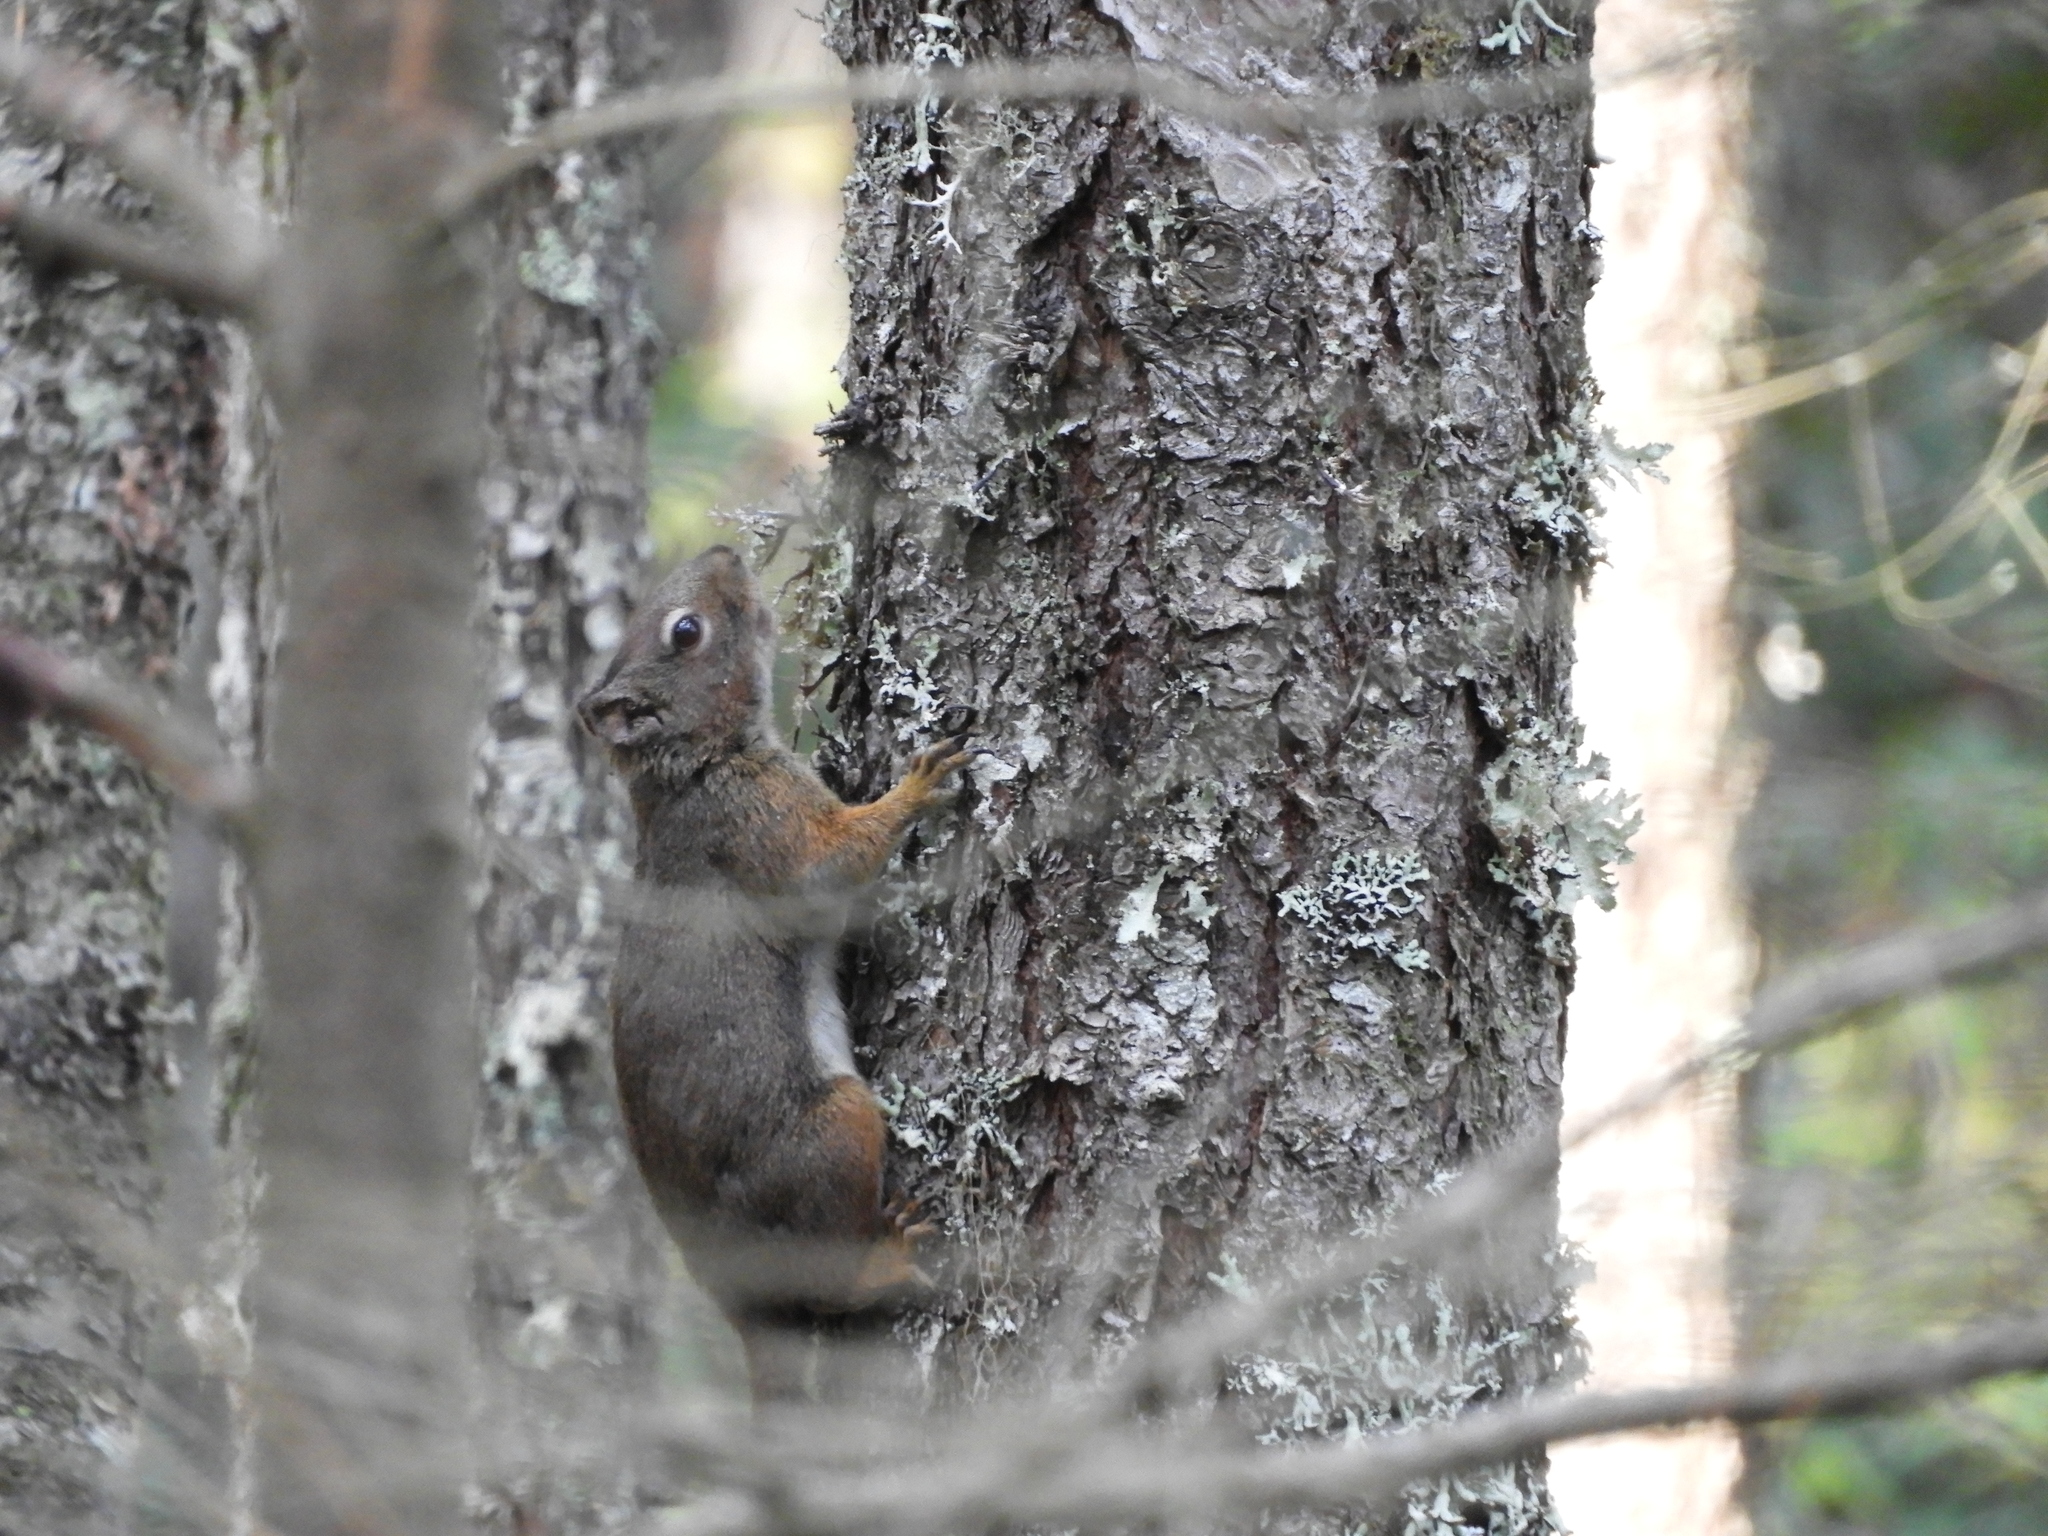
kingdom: Animalia
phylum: Chordata
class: Mammalia
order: Rodentia
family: Sciuridae
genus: Tamiasciurus
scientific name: Tamiasciurus hudsonicus
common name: Red squirrel
